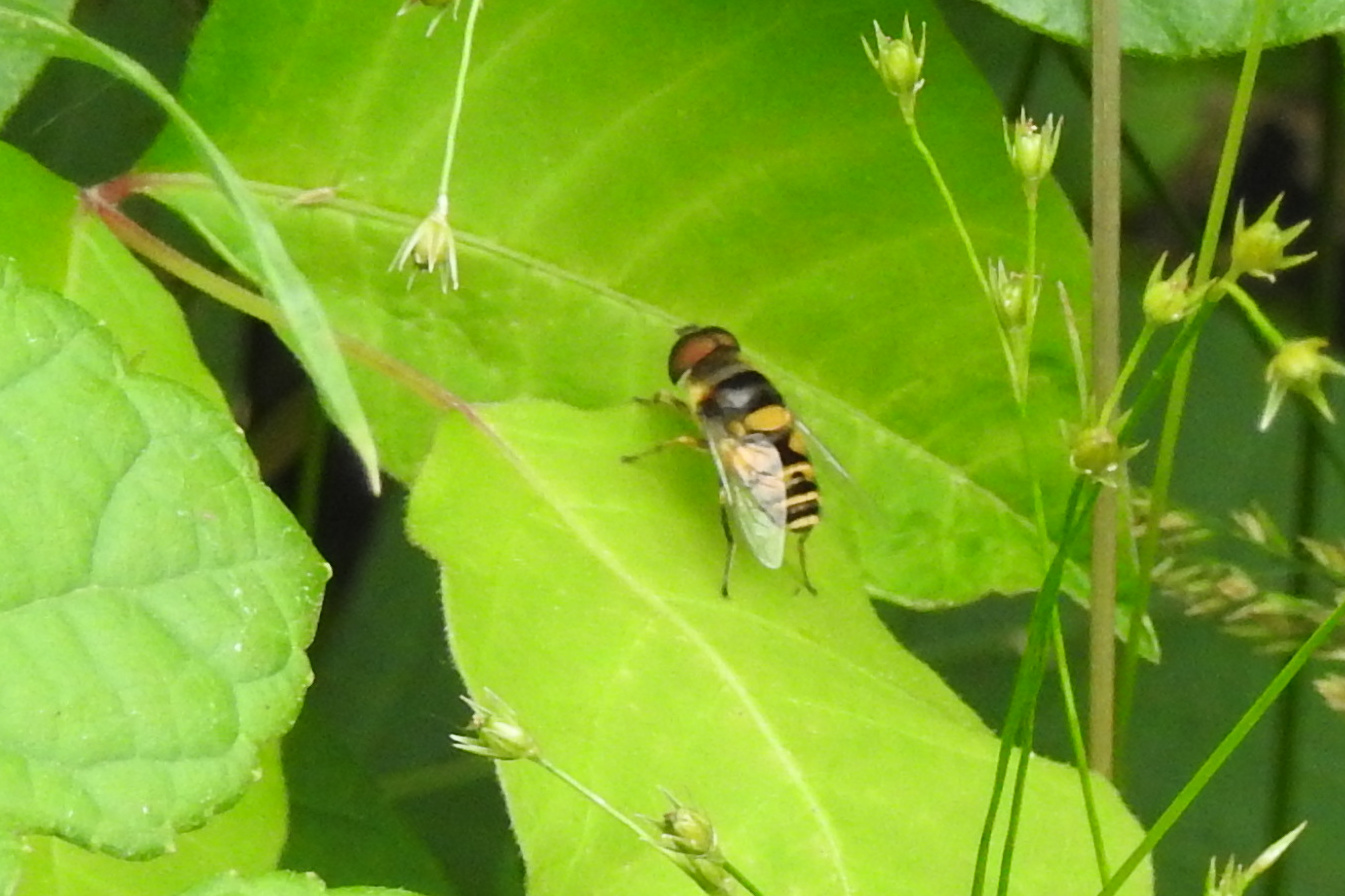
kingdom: Animalia
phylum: Arthropoda
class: Insecta
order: Diptera
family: Syrphidae
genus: Eristalis
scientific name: Eristalis transversa
